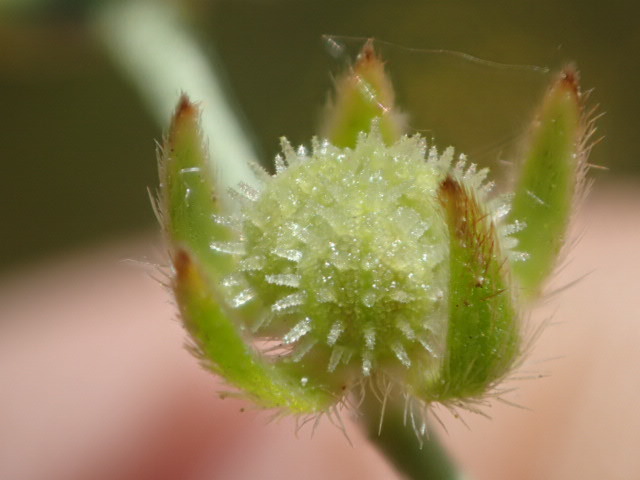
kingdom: Plantae
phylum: Tracheophyta
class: Magnoliopsida
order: Boraginales
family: Boraginaceae
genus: Plagiobothrys
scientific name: Plagiobothrys hystriculus
